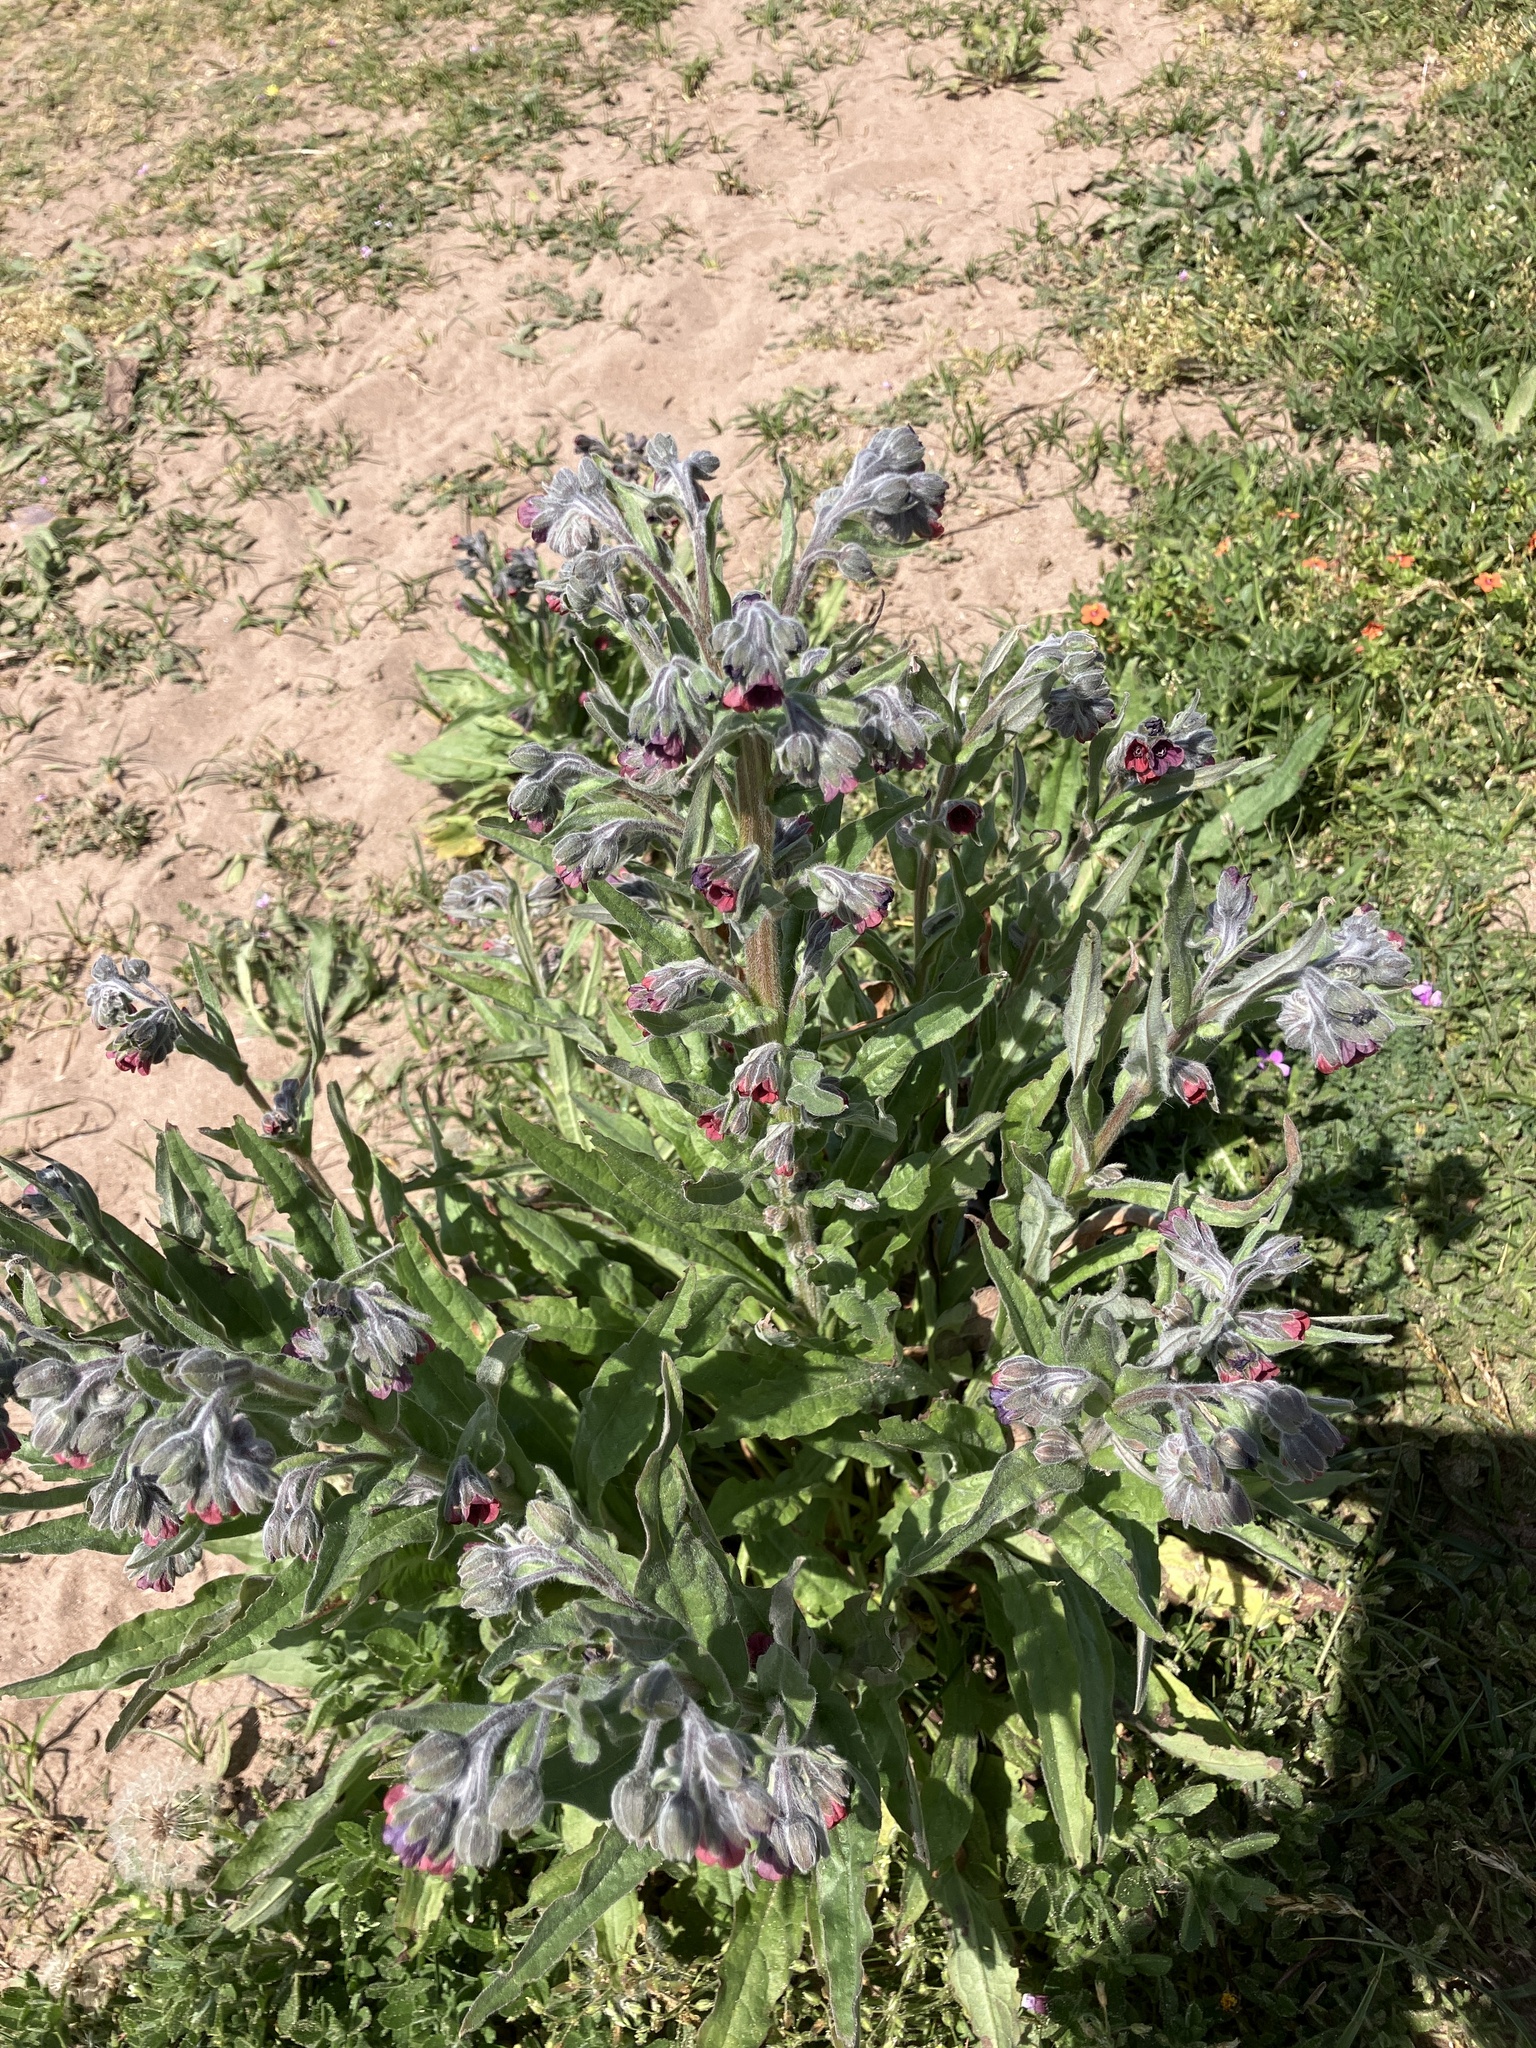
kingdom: Plantae
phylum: Tracheophyta
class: Magnoliopsida
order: Boraginales
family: Boraginaceae
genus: Cynoglossum
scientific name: Cynoglossum officinale
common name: Hound's-tongue
